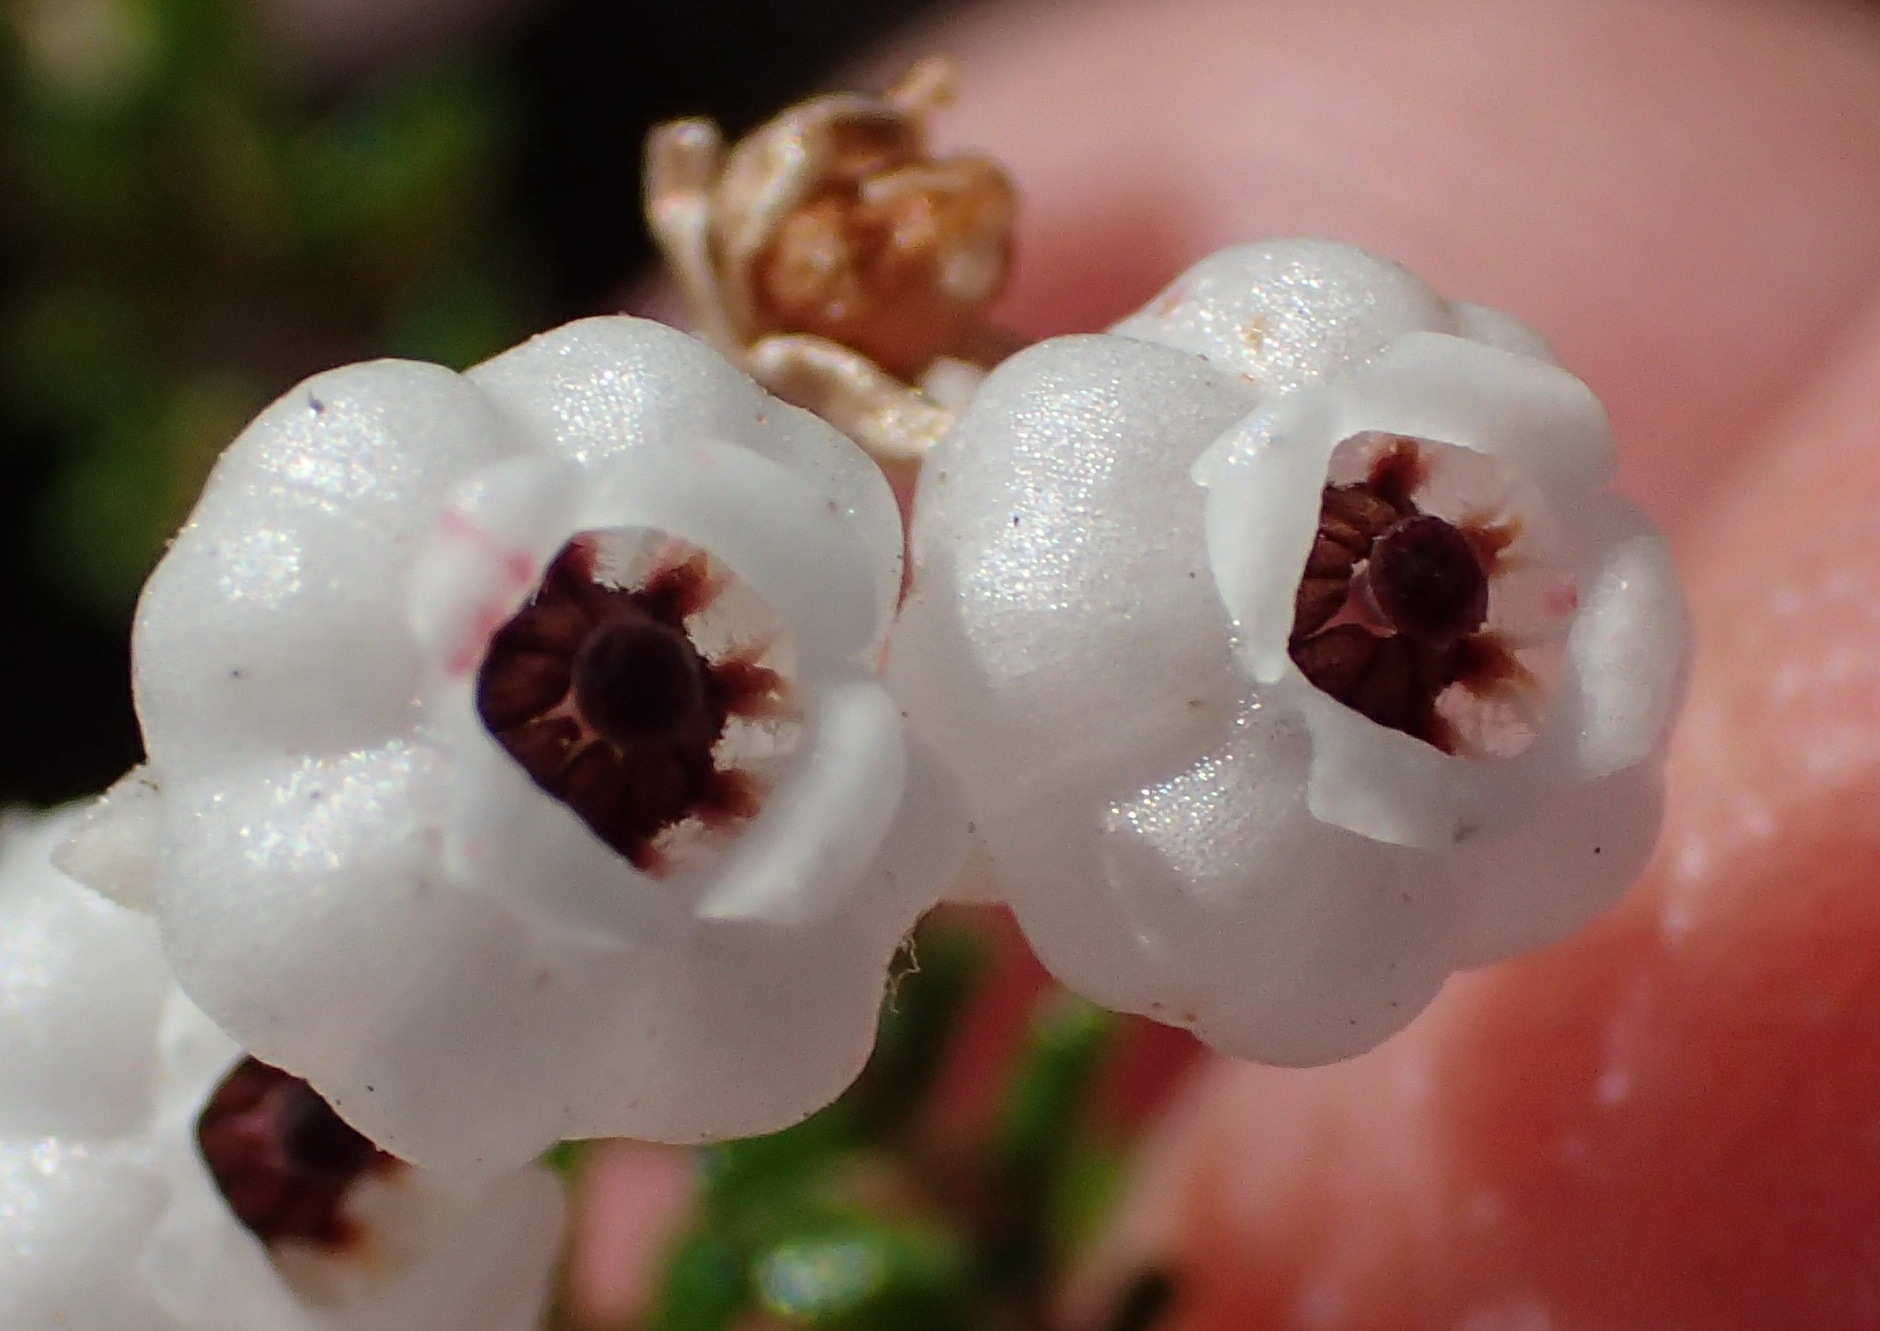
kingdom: Plantae
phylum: Tracheophyta
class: Magnoliopsida
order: Ericales
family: Ericaceae
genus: Erica
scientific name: Erica formosa
